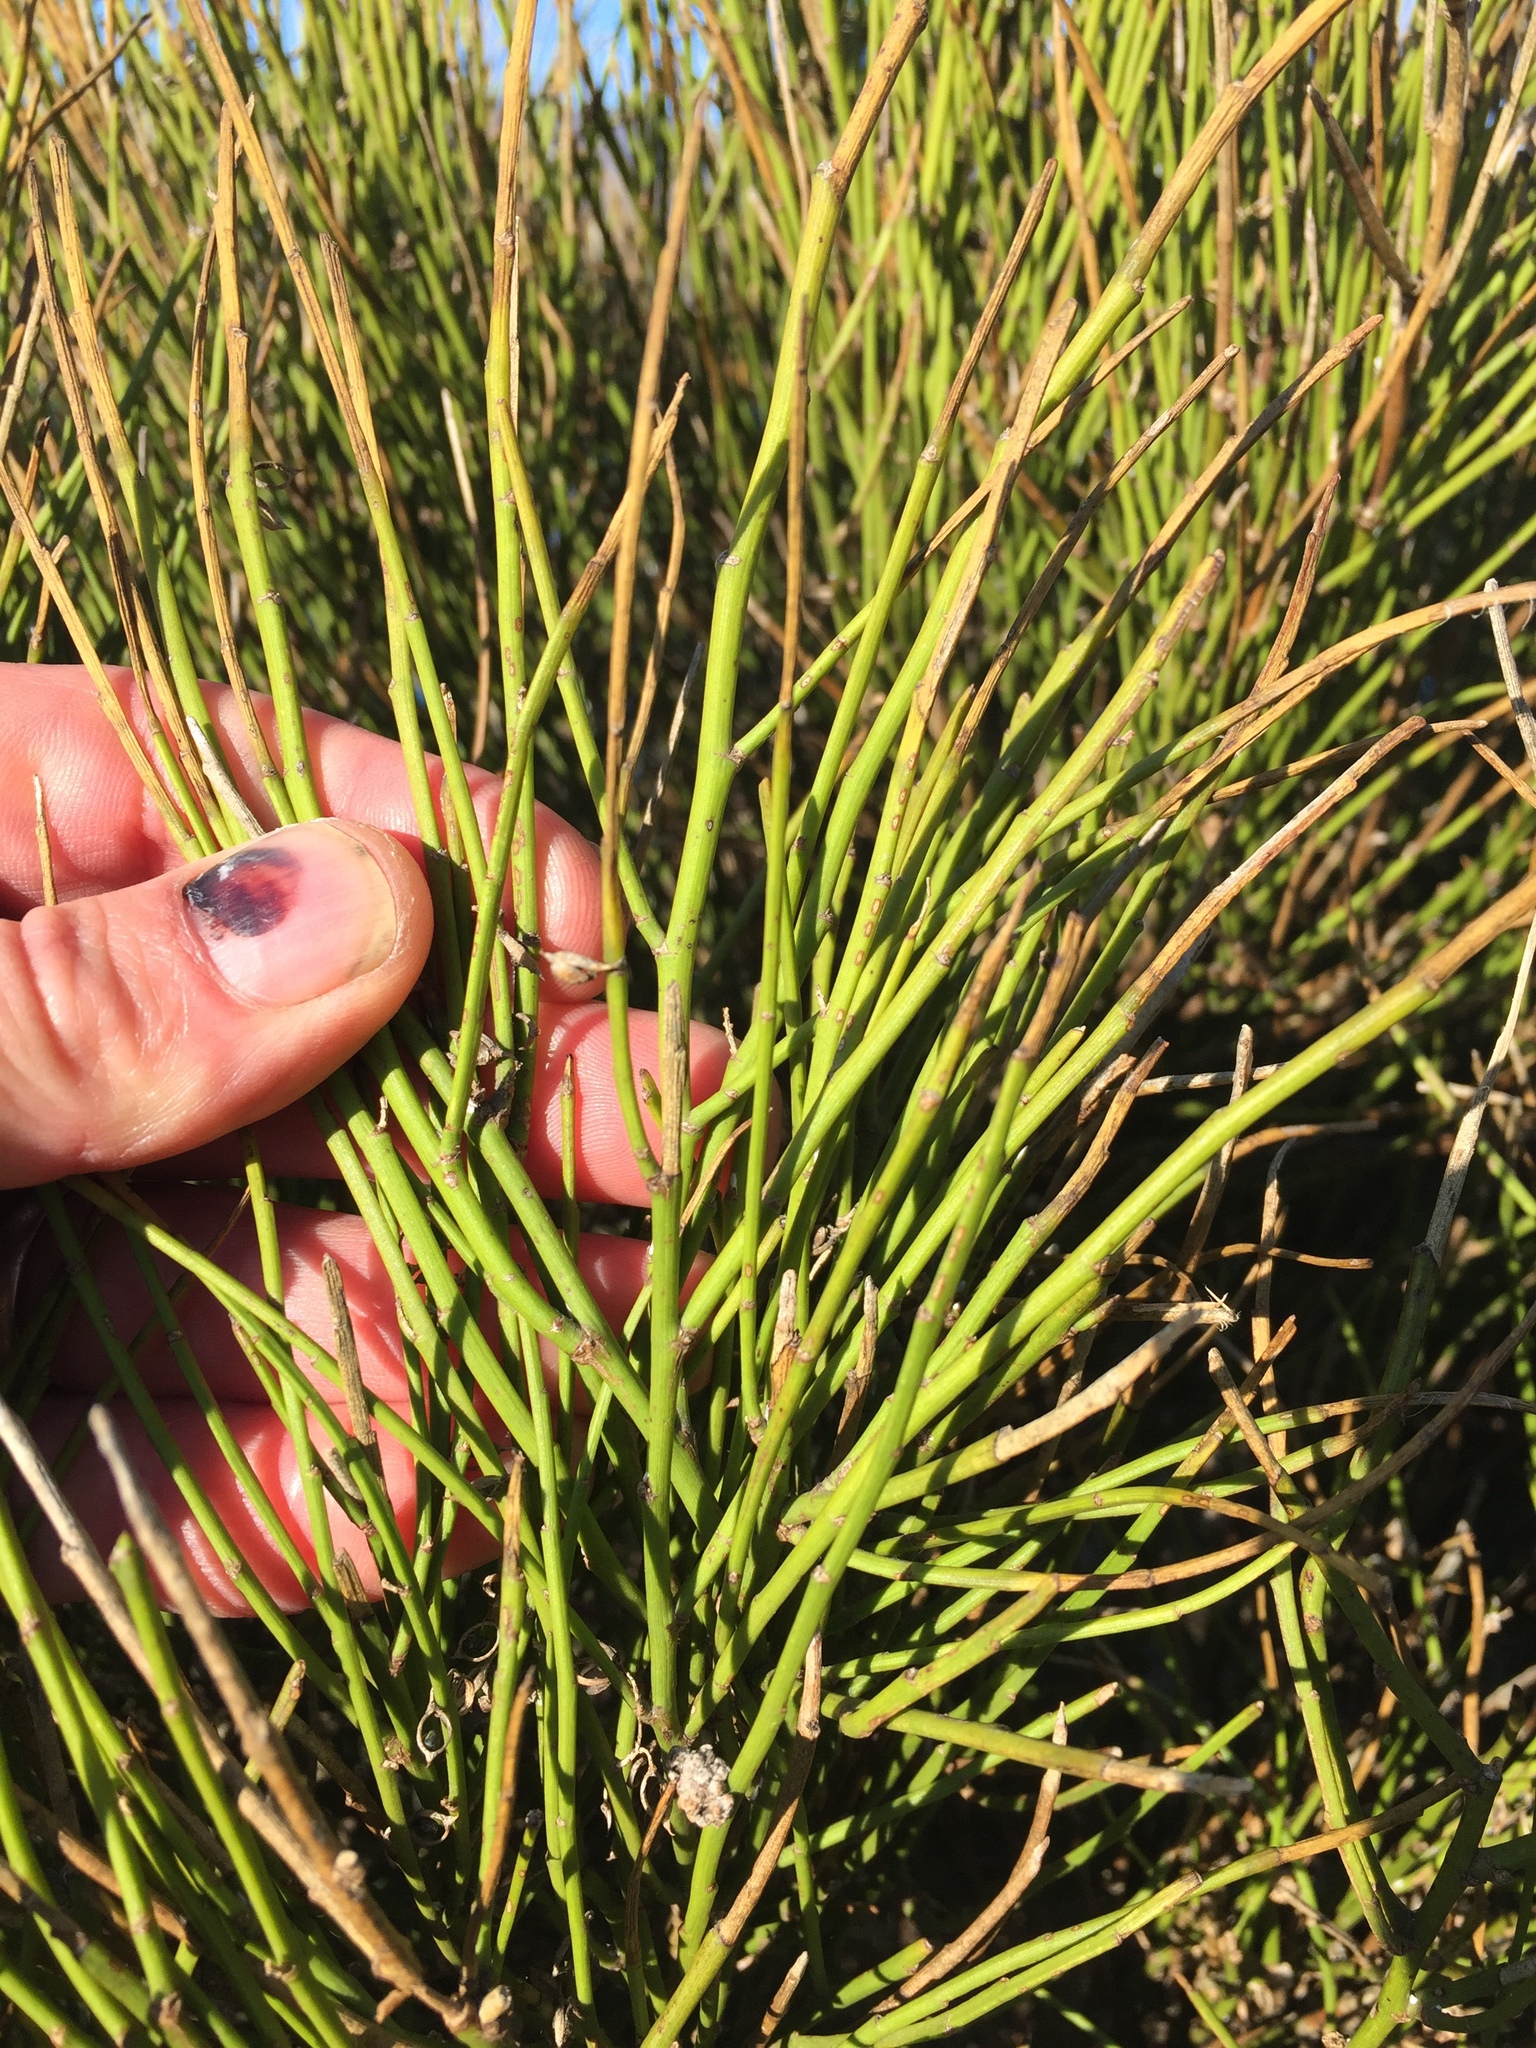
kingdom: Plantae
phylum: Tracheophyta
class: Magnoliopsida
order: Fabales
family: Fabaceae
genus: Carmichaelia
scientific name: Carmichaelia australis
